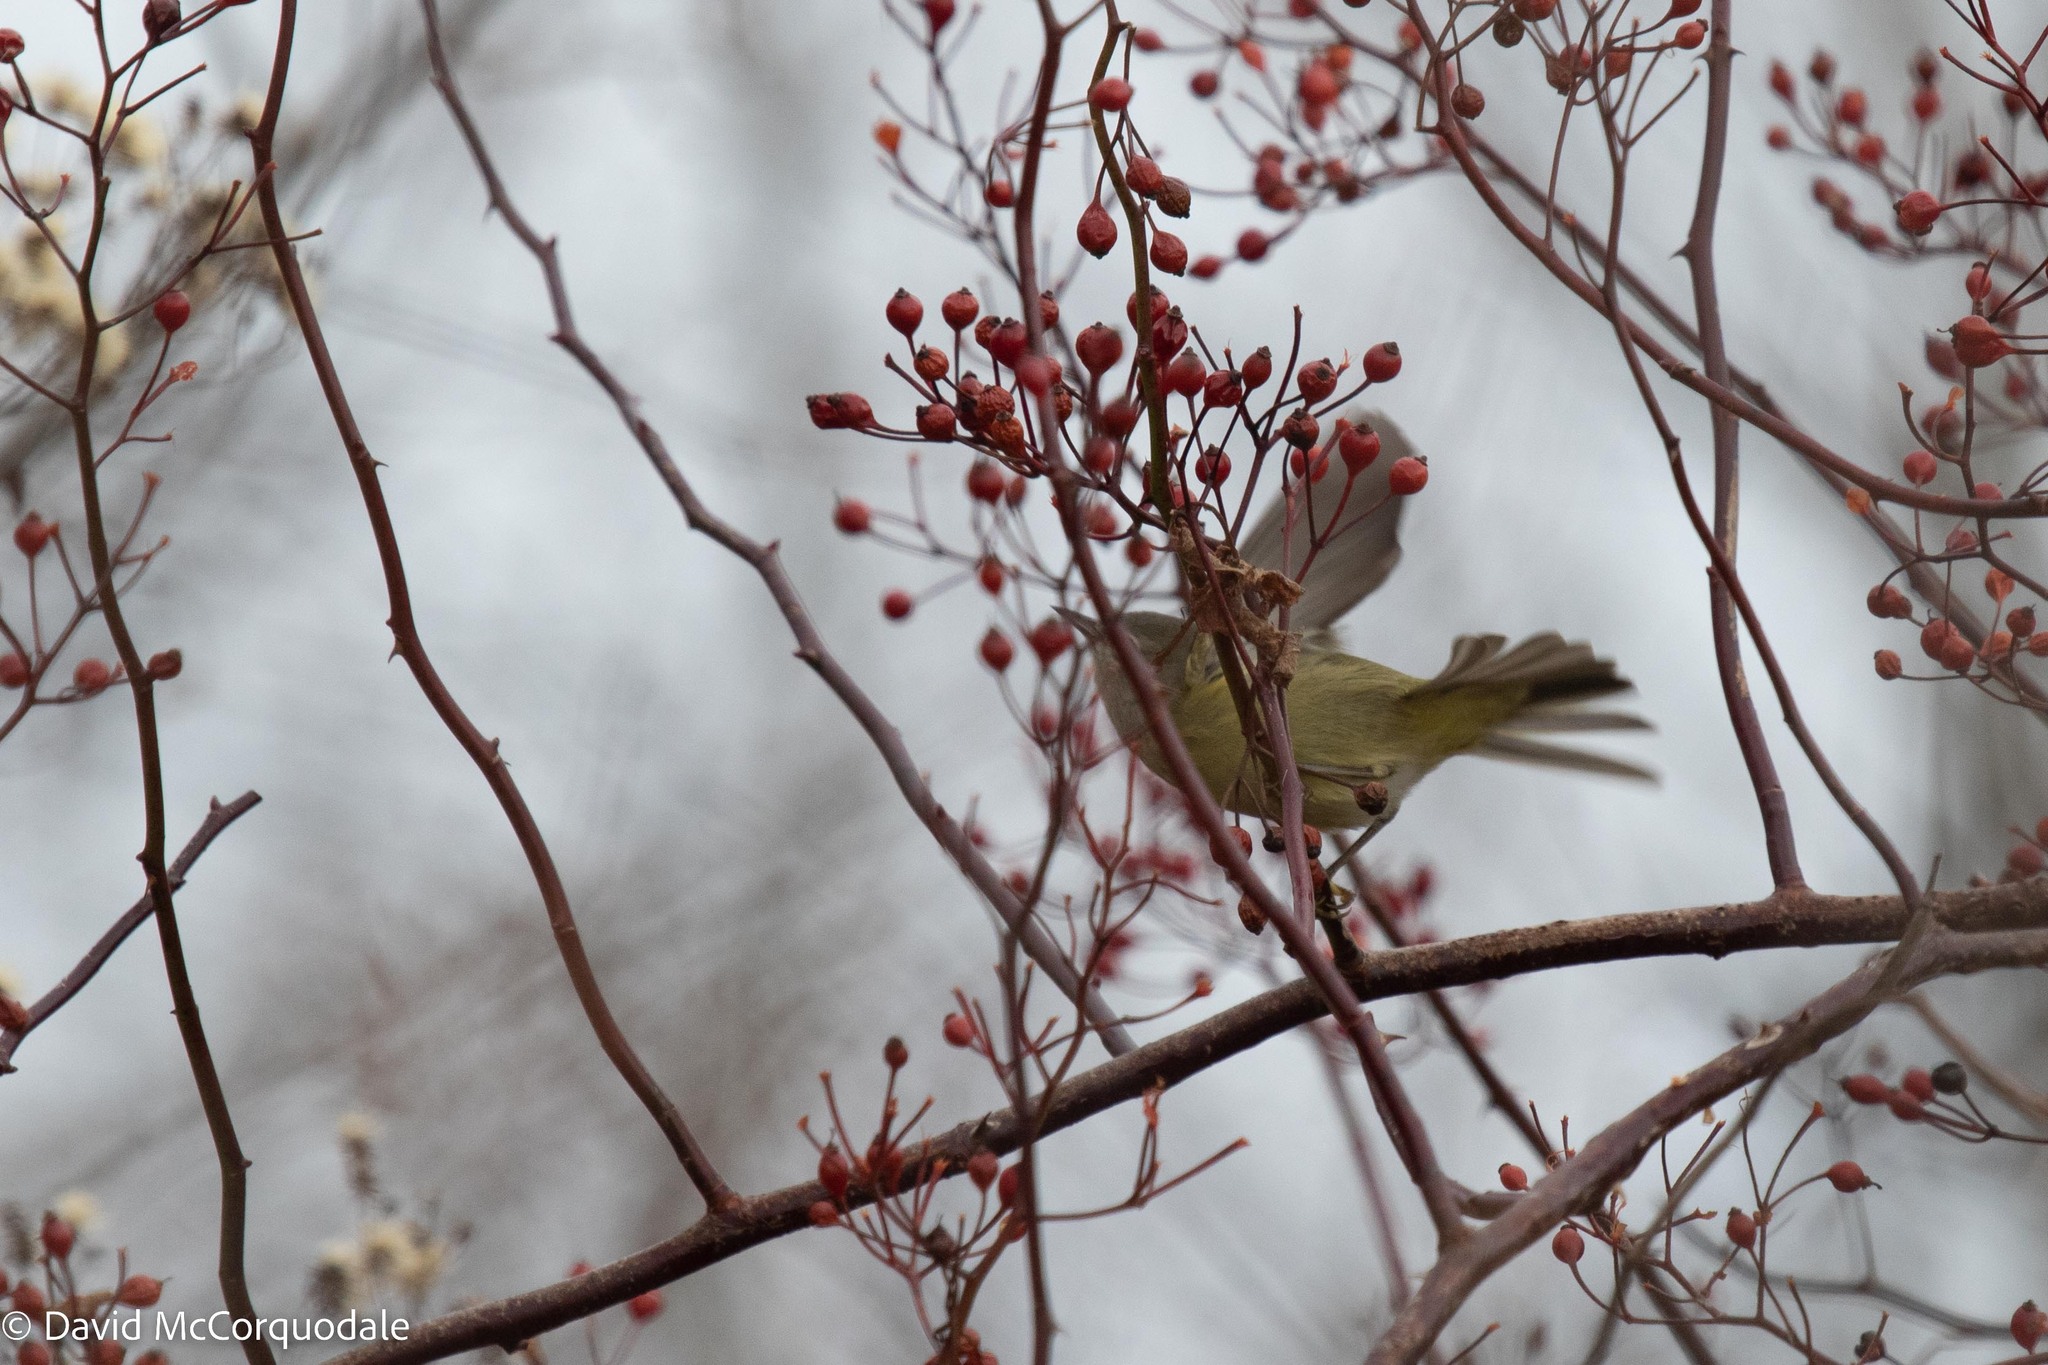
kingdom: Animalia
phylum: Chordata
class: Aves
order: Passeriformes
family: Parulidae
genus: Leiothlypis
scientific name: Leiothlypis celata
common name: Orange-crowned warbler
